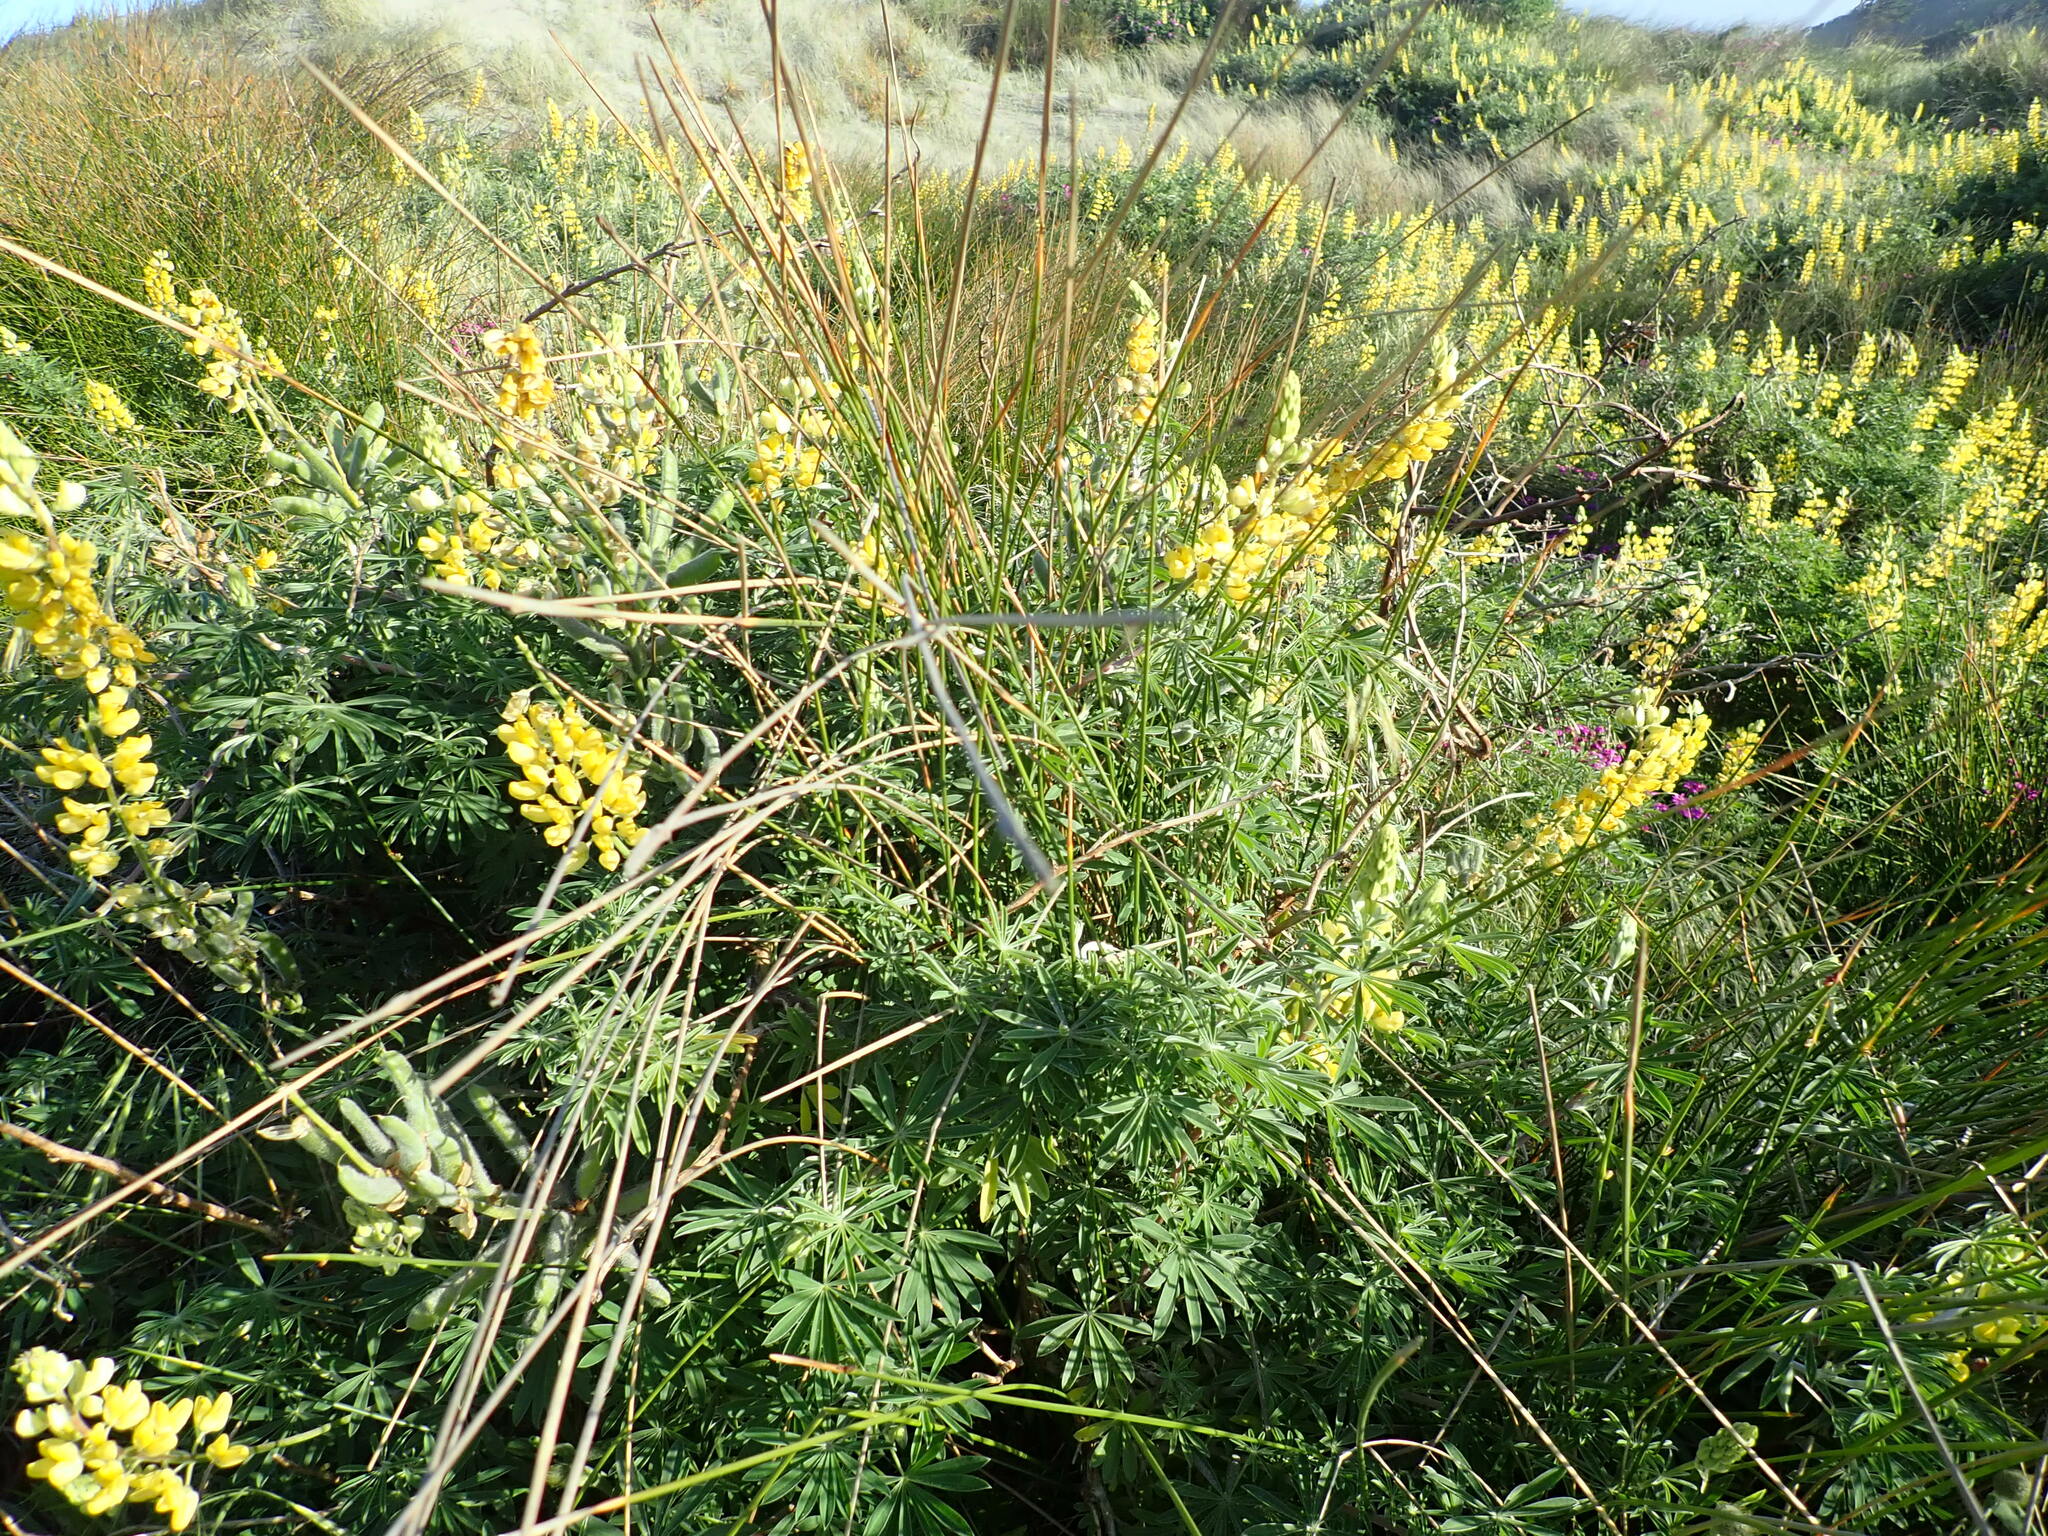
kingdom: Plantae
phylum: Tracheophyta
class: Magnoliopsida
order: Fabales
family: Fabaceae
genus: Lupinus
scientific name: Lupinus arboreus
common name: Yellow bush lupine
